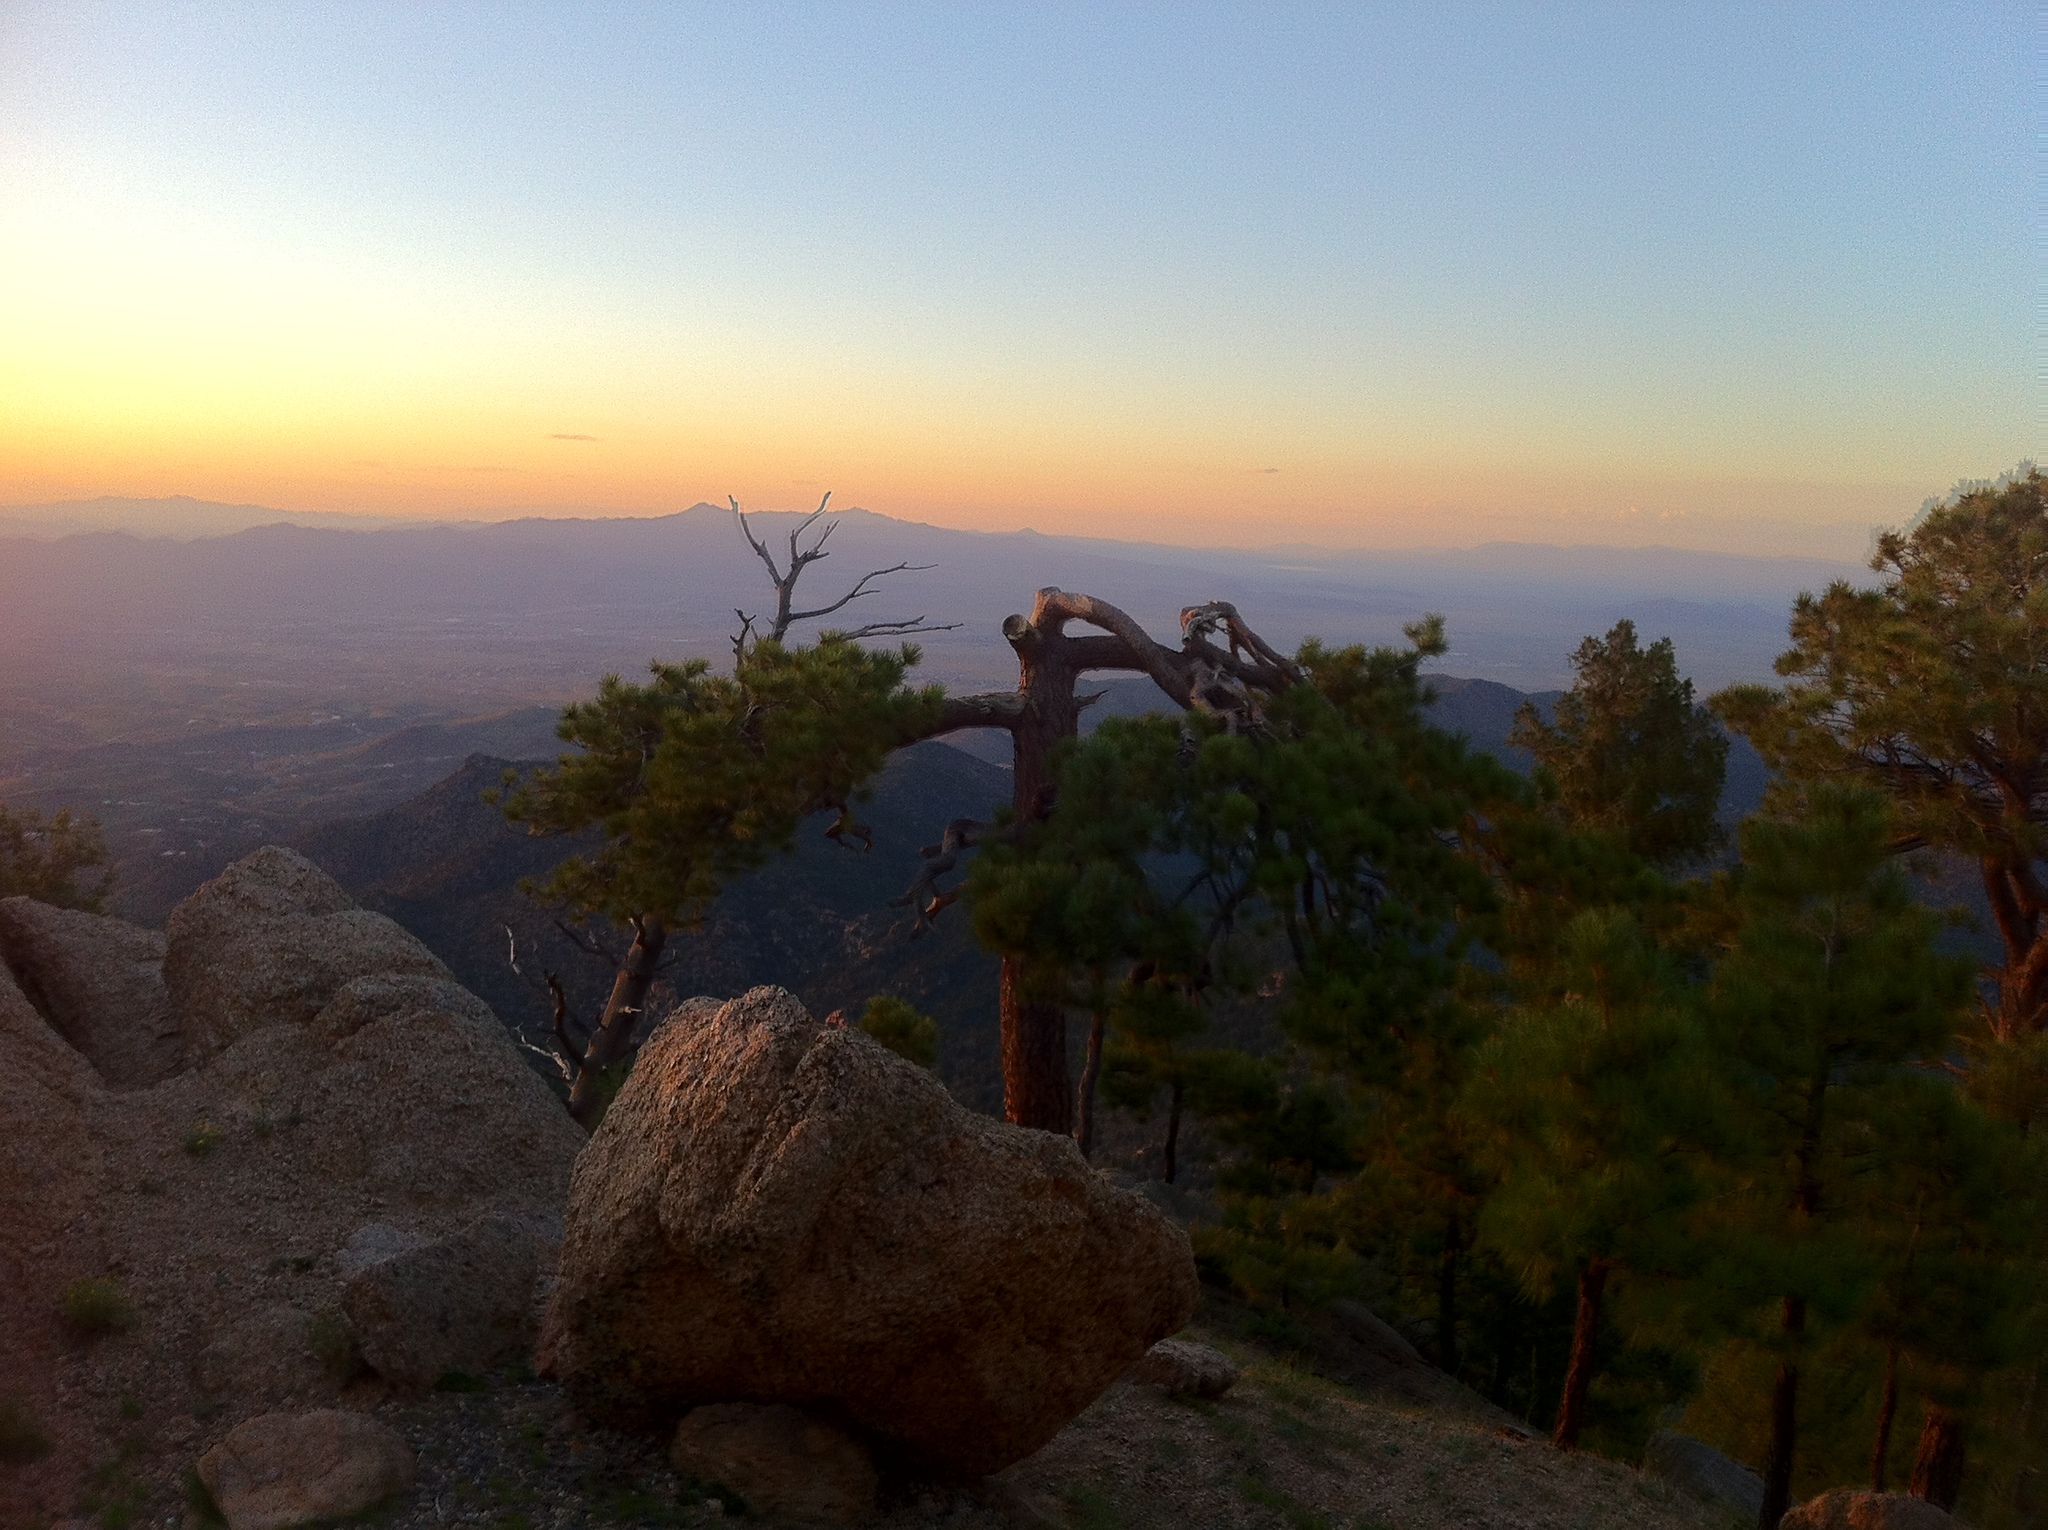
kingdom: Plantae
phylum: Tracheophyta
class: Pinopsida
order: Pinales
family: Pinaceae
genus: Pinus
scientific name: Pinus ponderosa
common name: Western yellow-pine
